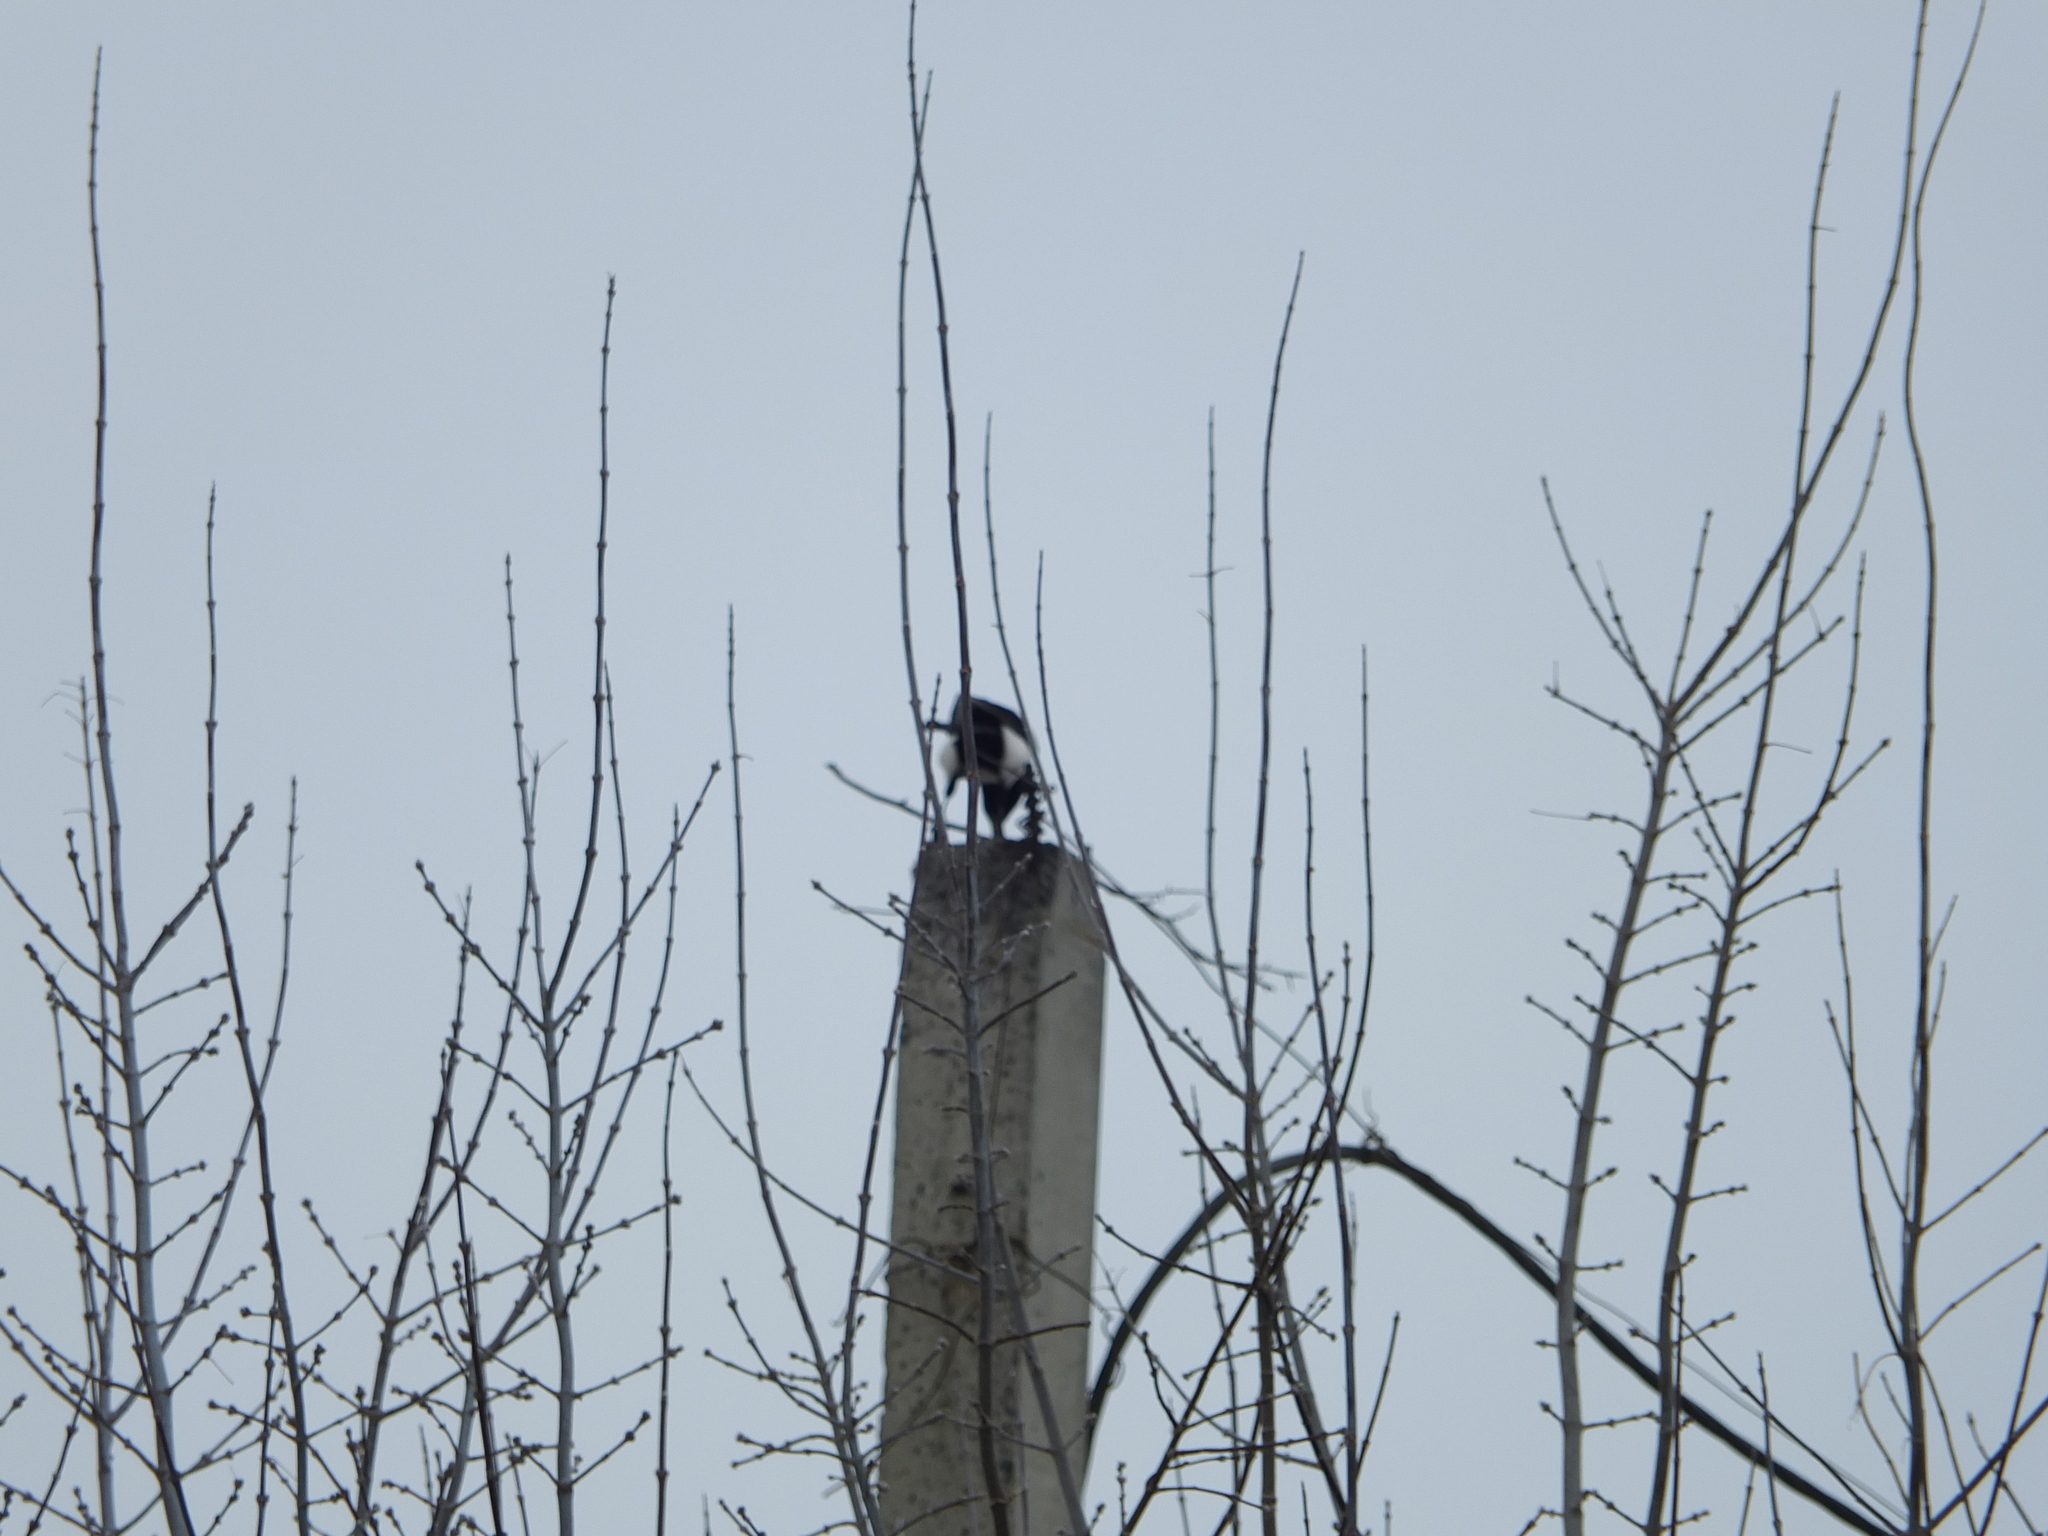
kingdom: Animalia
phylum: Chordata
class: Aves
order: Passeriformes
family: Corvidae
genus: Pica
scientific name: Pica pica
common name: Eurasian magpie
